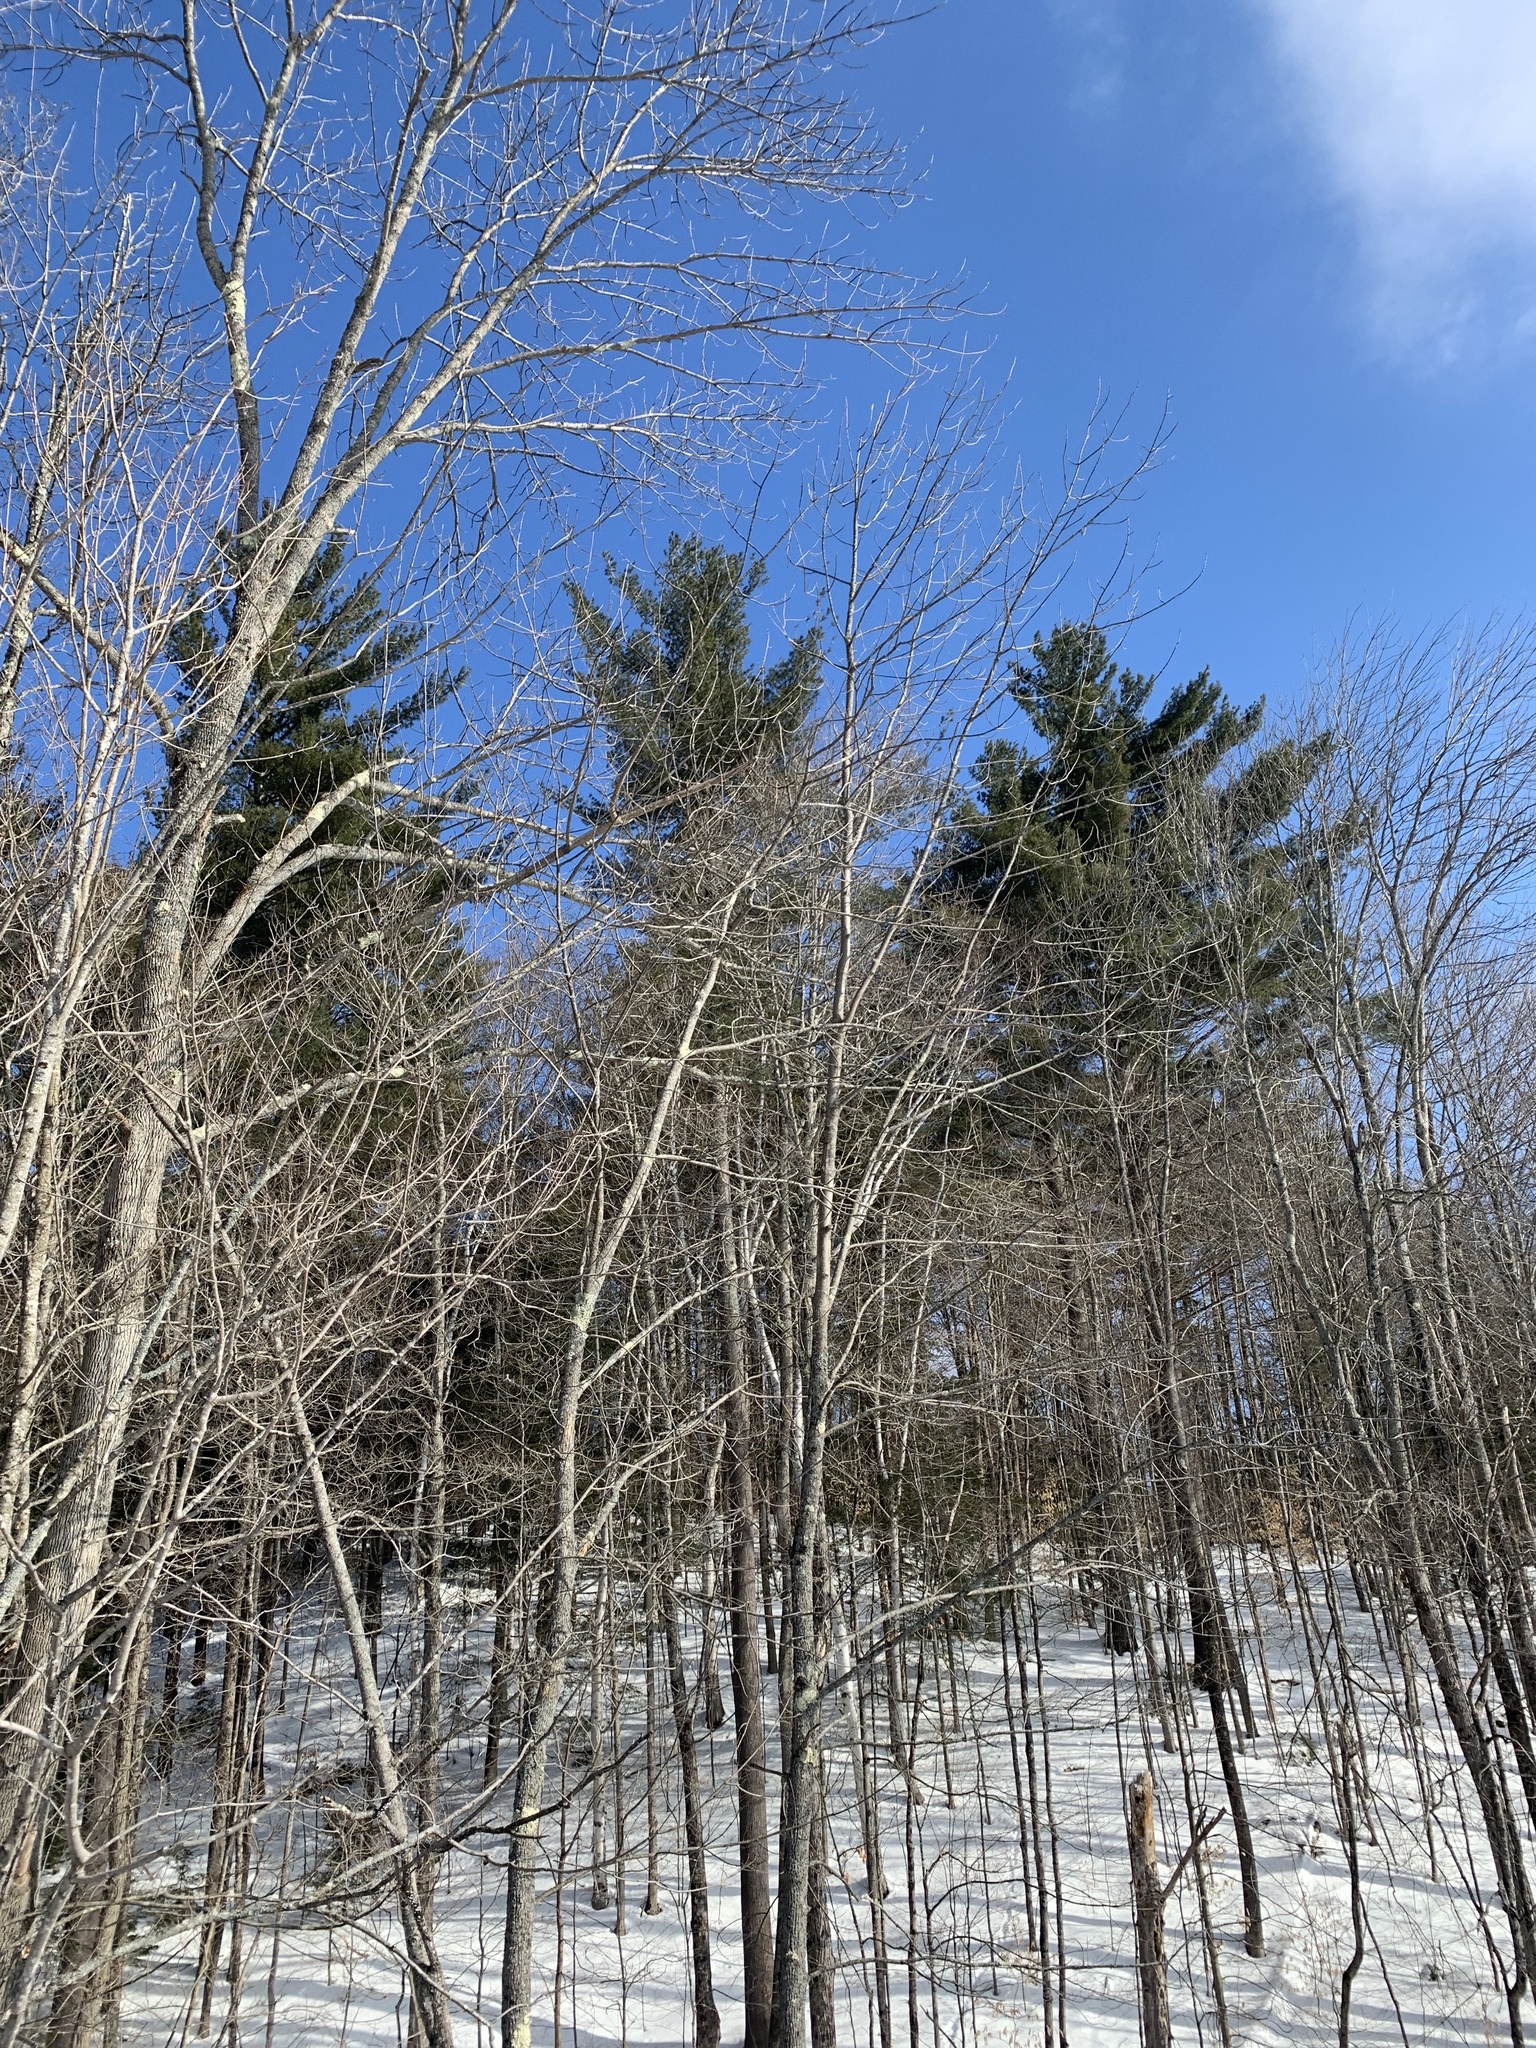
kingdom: Plantae
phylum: Tracheophyta
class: Pinopsida
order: Pinales
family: Pinaceae
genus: Pinus
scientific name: Pinus strobus
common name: Weymouth pine
